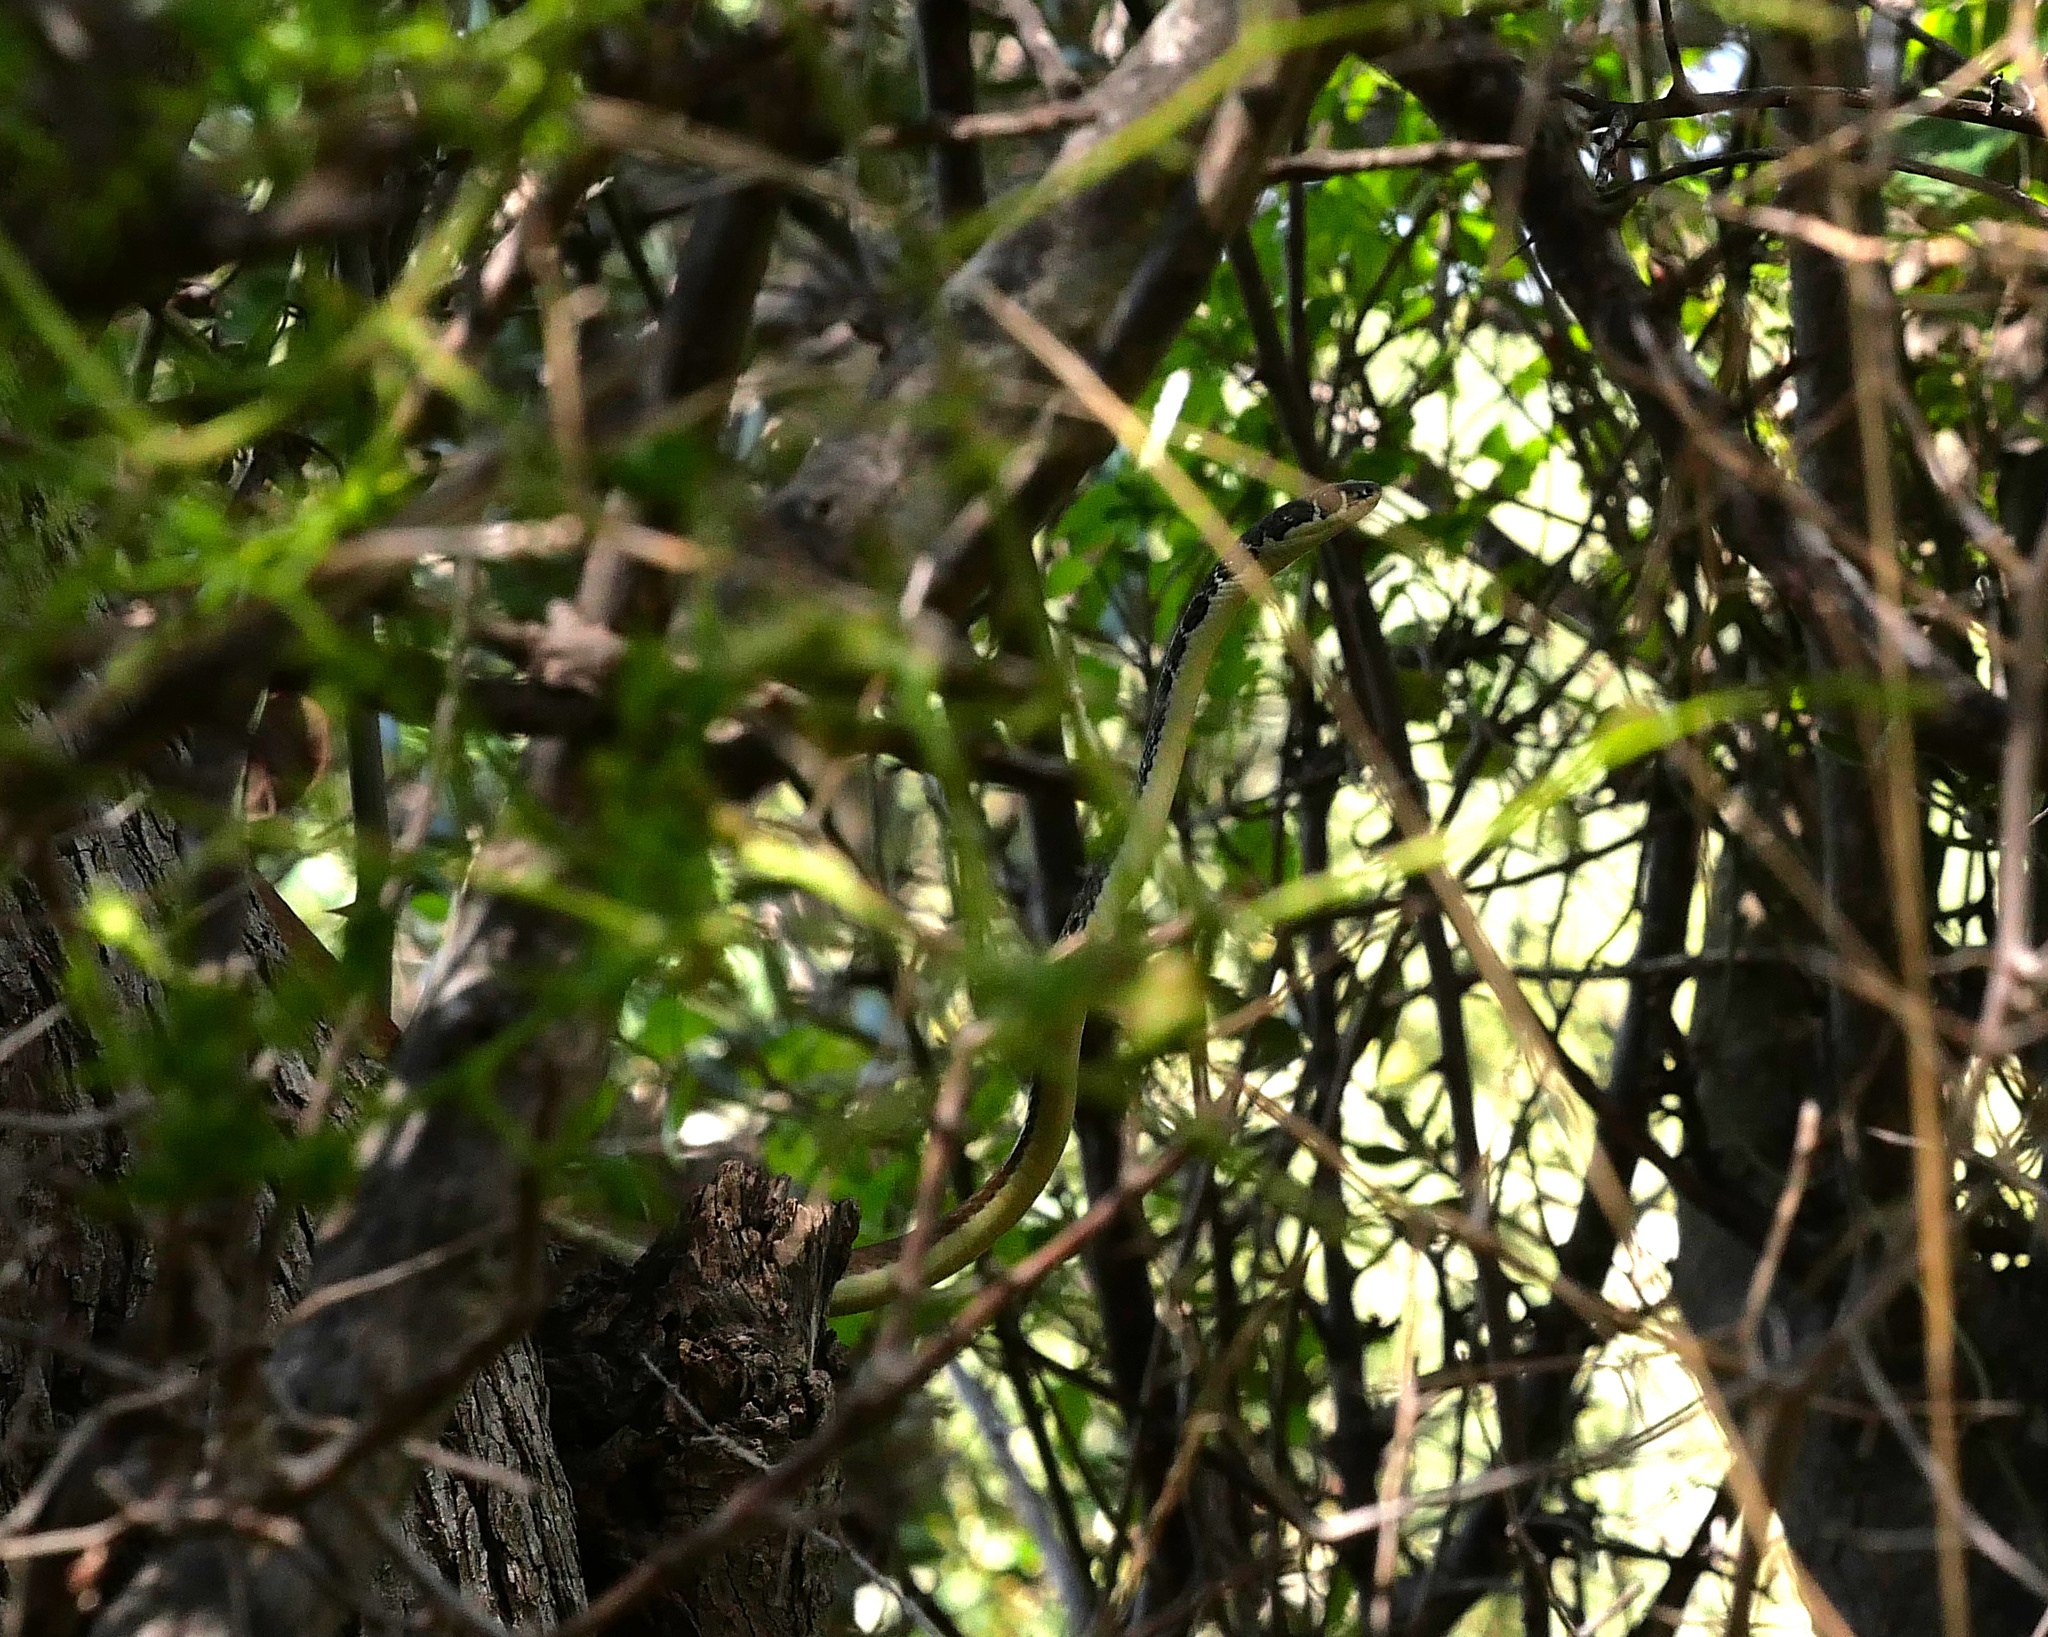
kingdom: Animalia
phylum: Chordata
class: Squamata
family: Colubridae
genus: Platyceps
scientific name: Platyceps najadum
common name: Dahl's whip snake
